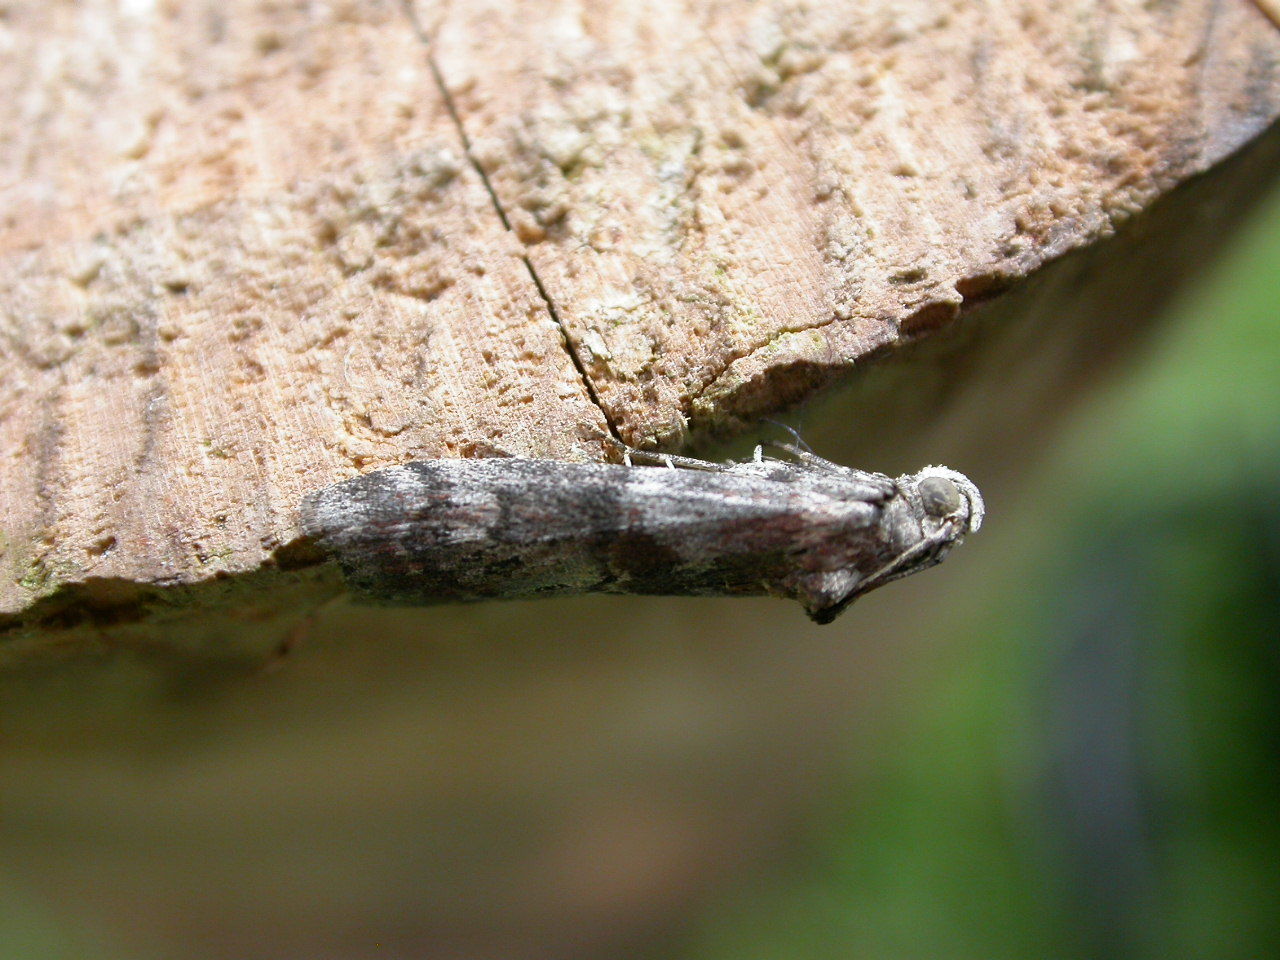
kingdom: Animalia
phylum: Arthropoda
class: Insecta
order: Lepidoptera
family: Pyralidae
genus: Acrobasis
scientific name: Acrobasis advenella
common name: Grey knot-horn
